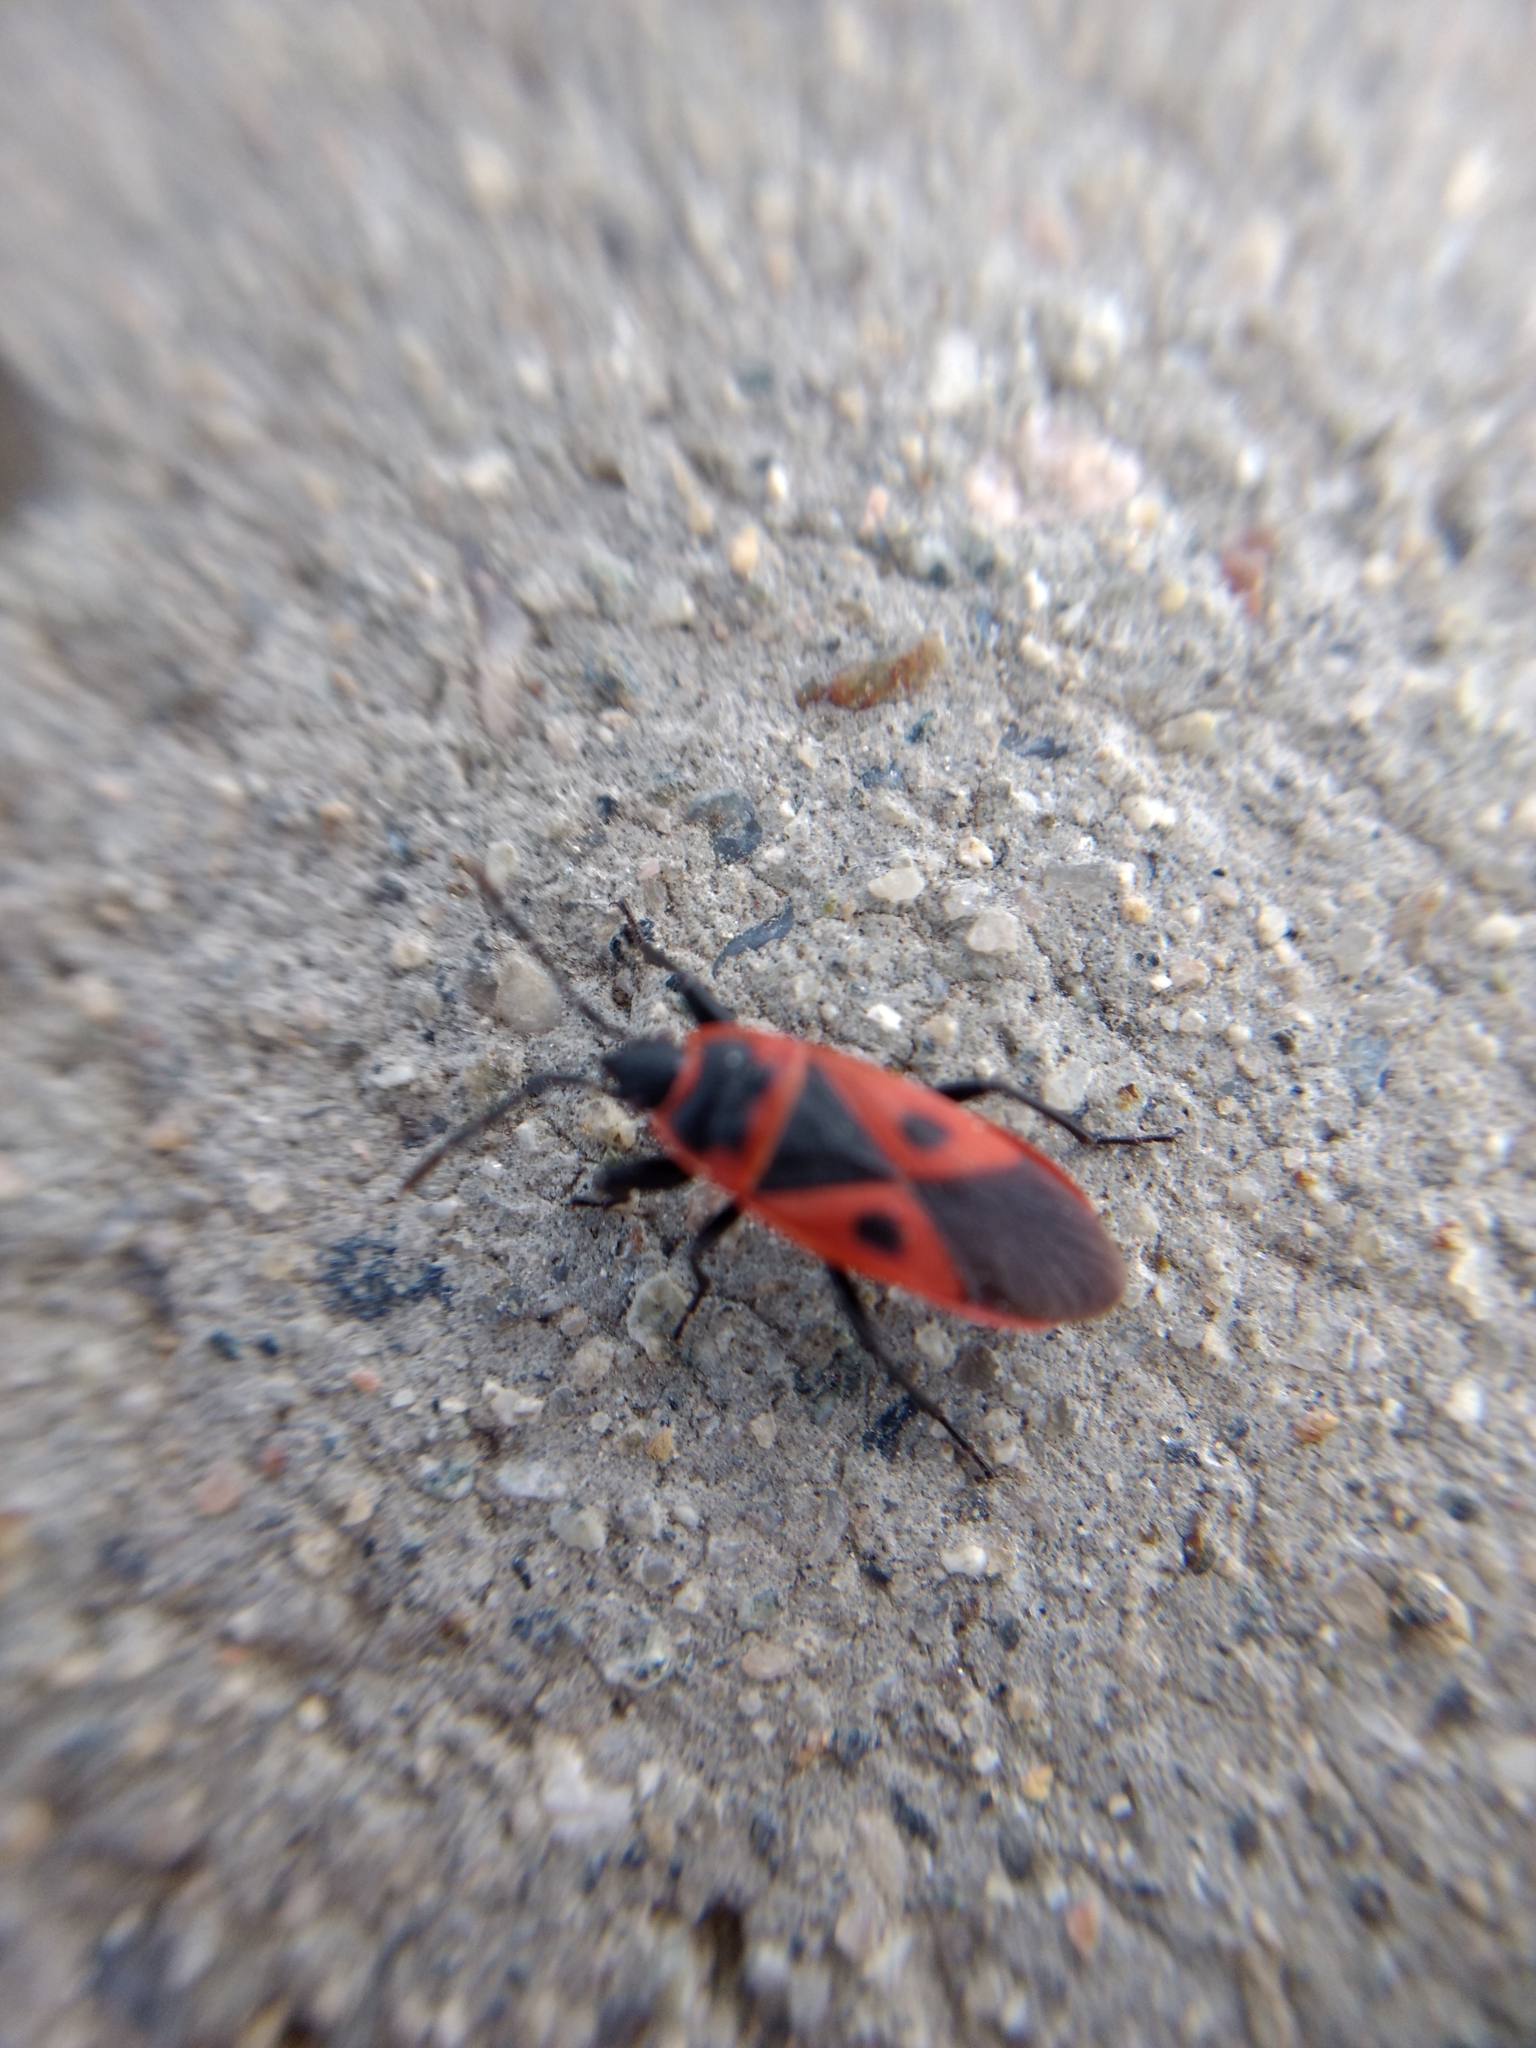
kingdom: Animalia
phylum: Arthropoda
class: Insecta
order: Hemiptera
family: Pyrrhocoridae
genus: Scantius
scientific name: Scantius aegyptius
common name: Red bug
